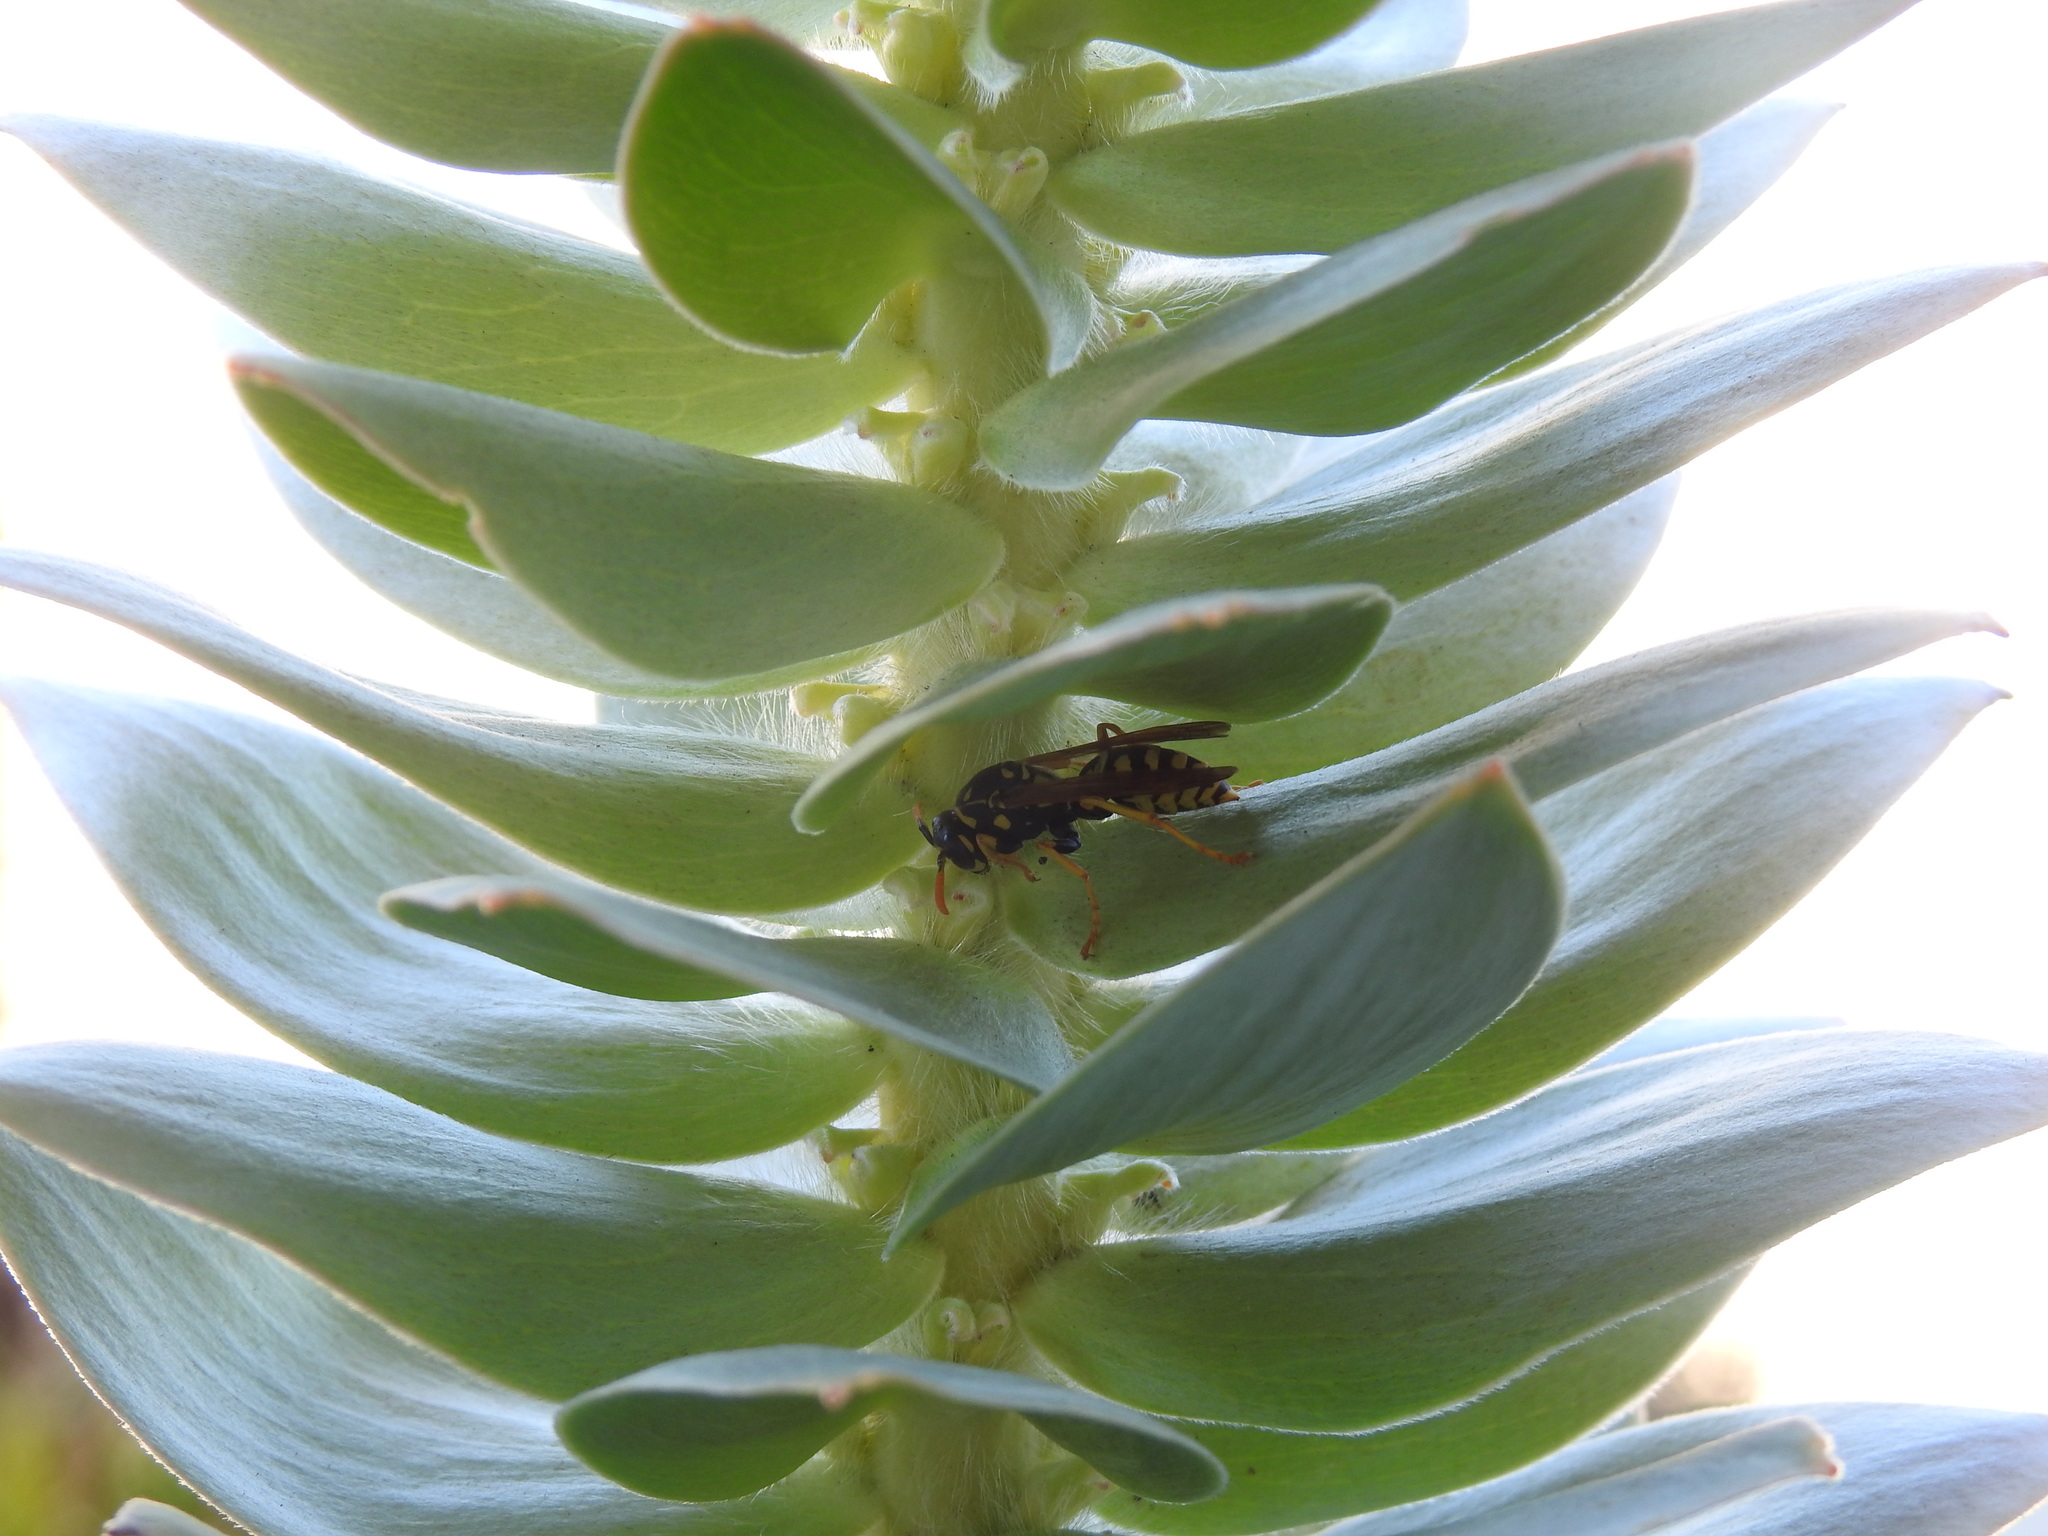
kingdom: Animalia
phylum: Arthropoda
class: Insecta
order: Hymenoptera
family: Eumenidae
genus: Polistes
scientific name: Polistes dominula
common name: Paper wasp
